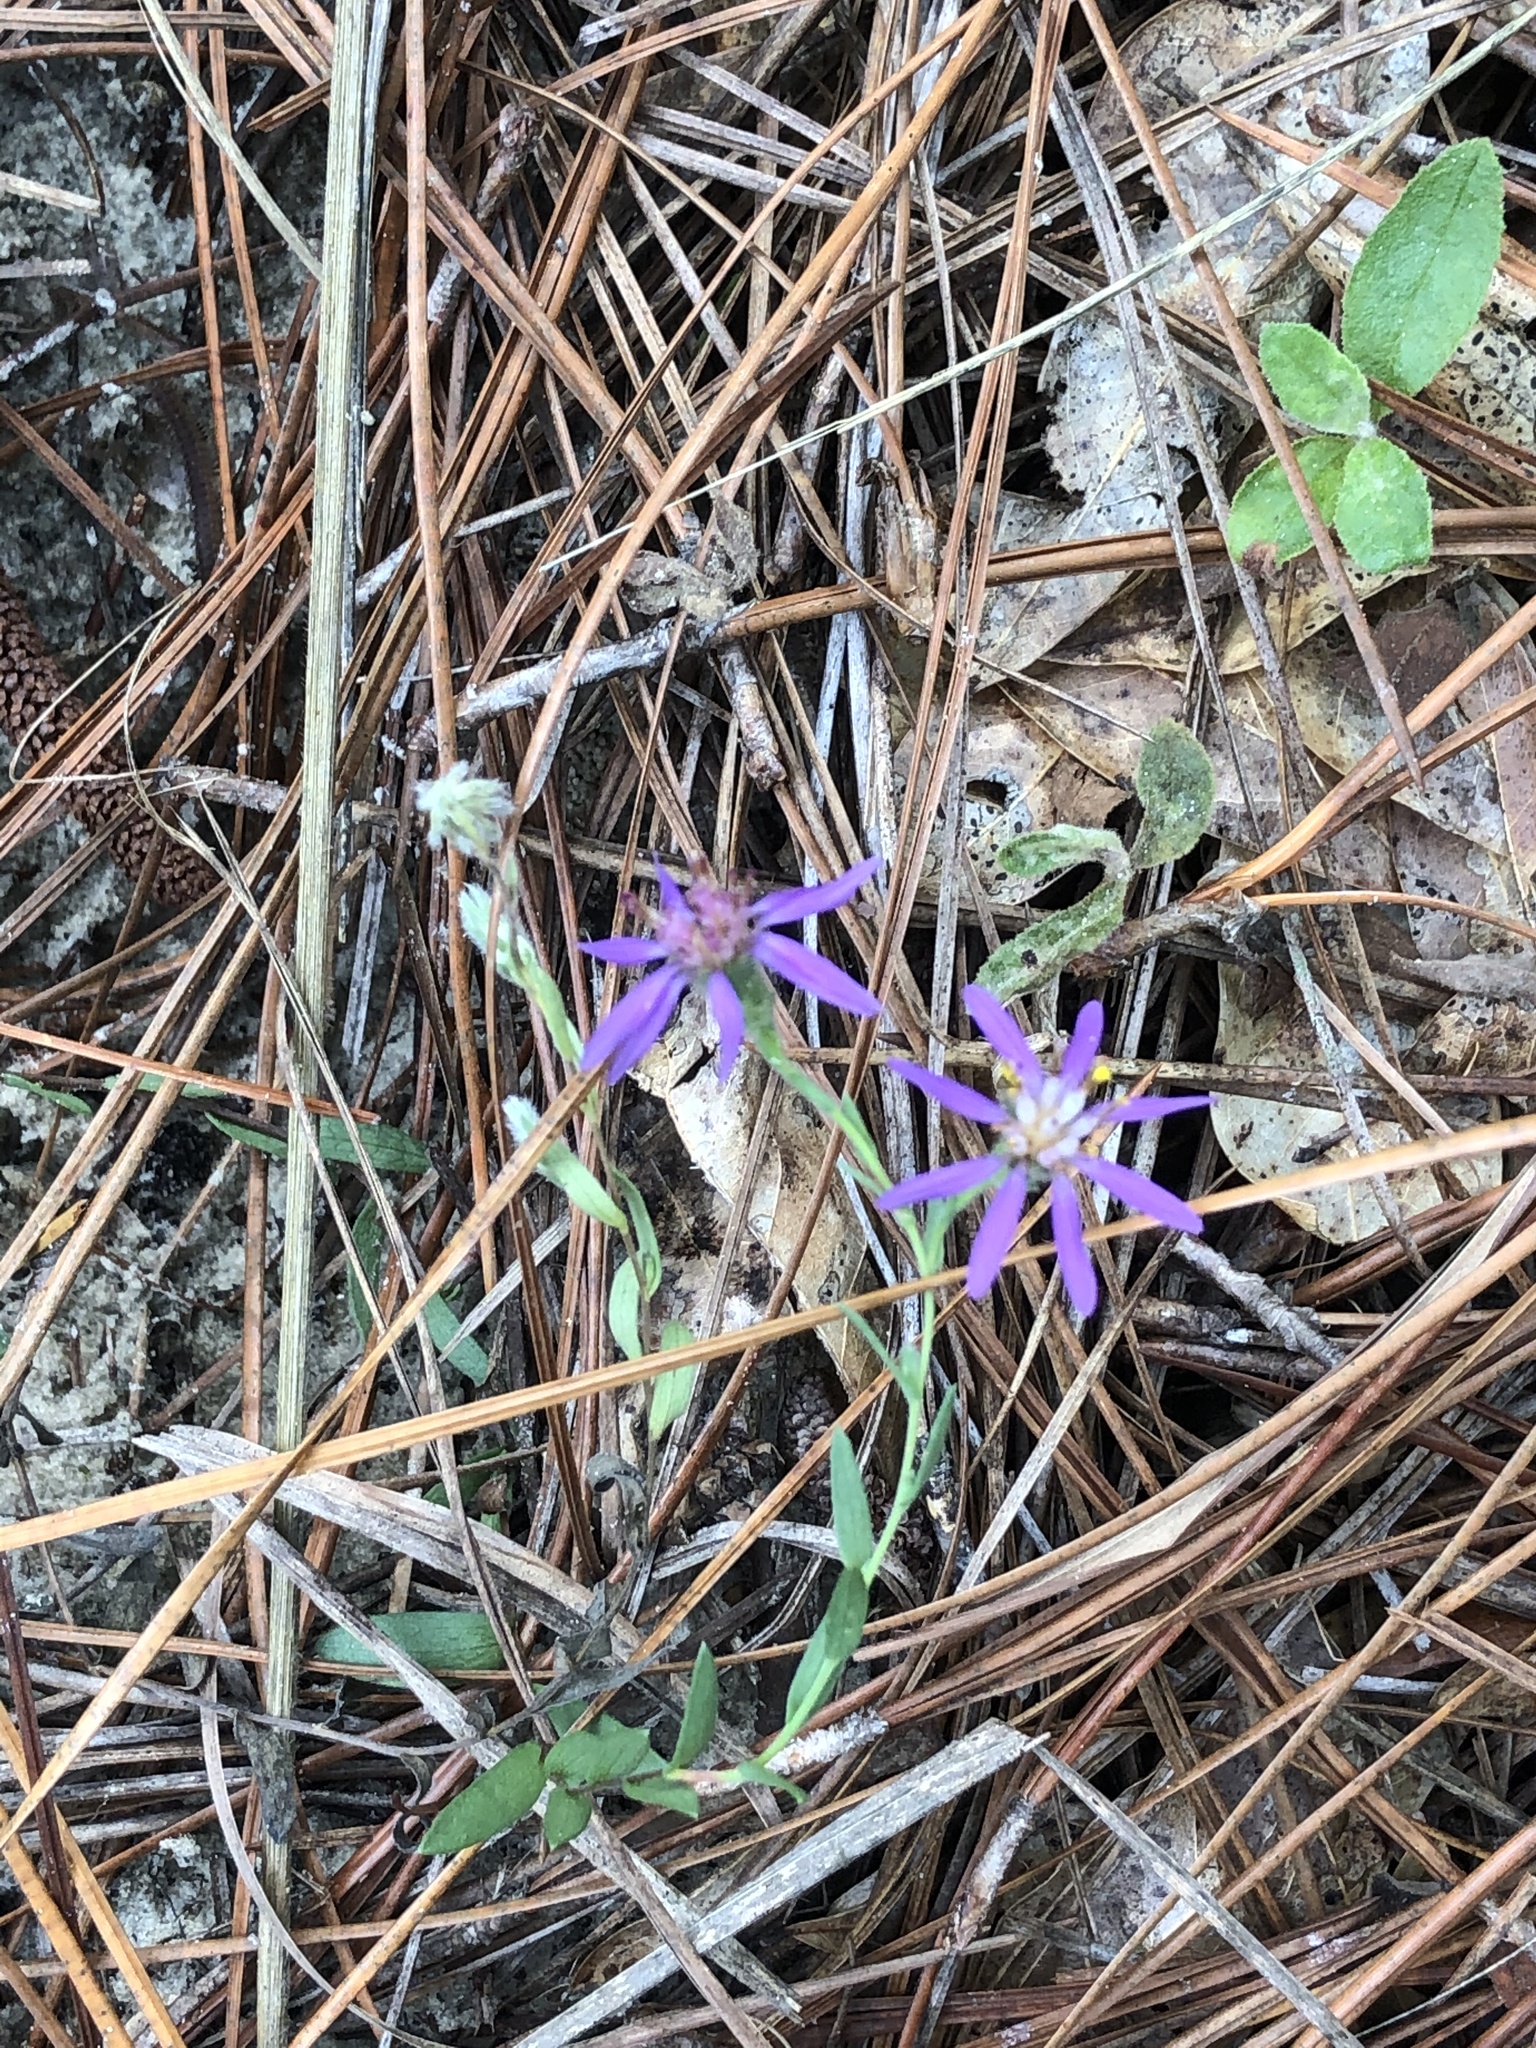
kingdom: Plantae
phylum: Tracheophyta
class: Magnoliopsida
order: Asterales
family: Asteraceae
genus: Symphyotrichum
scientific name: Symphyotrichum concolor
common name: Eastern silver aster
